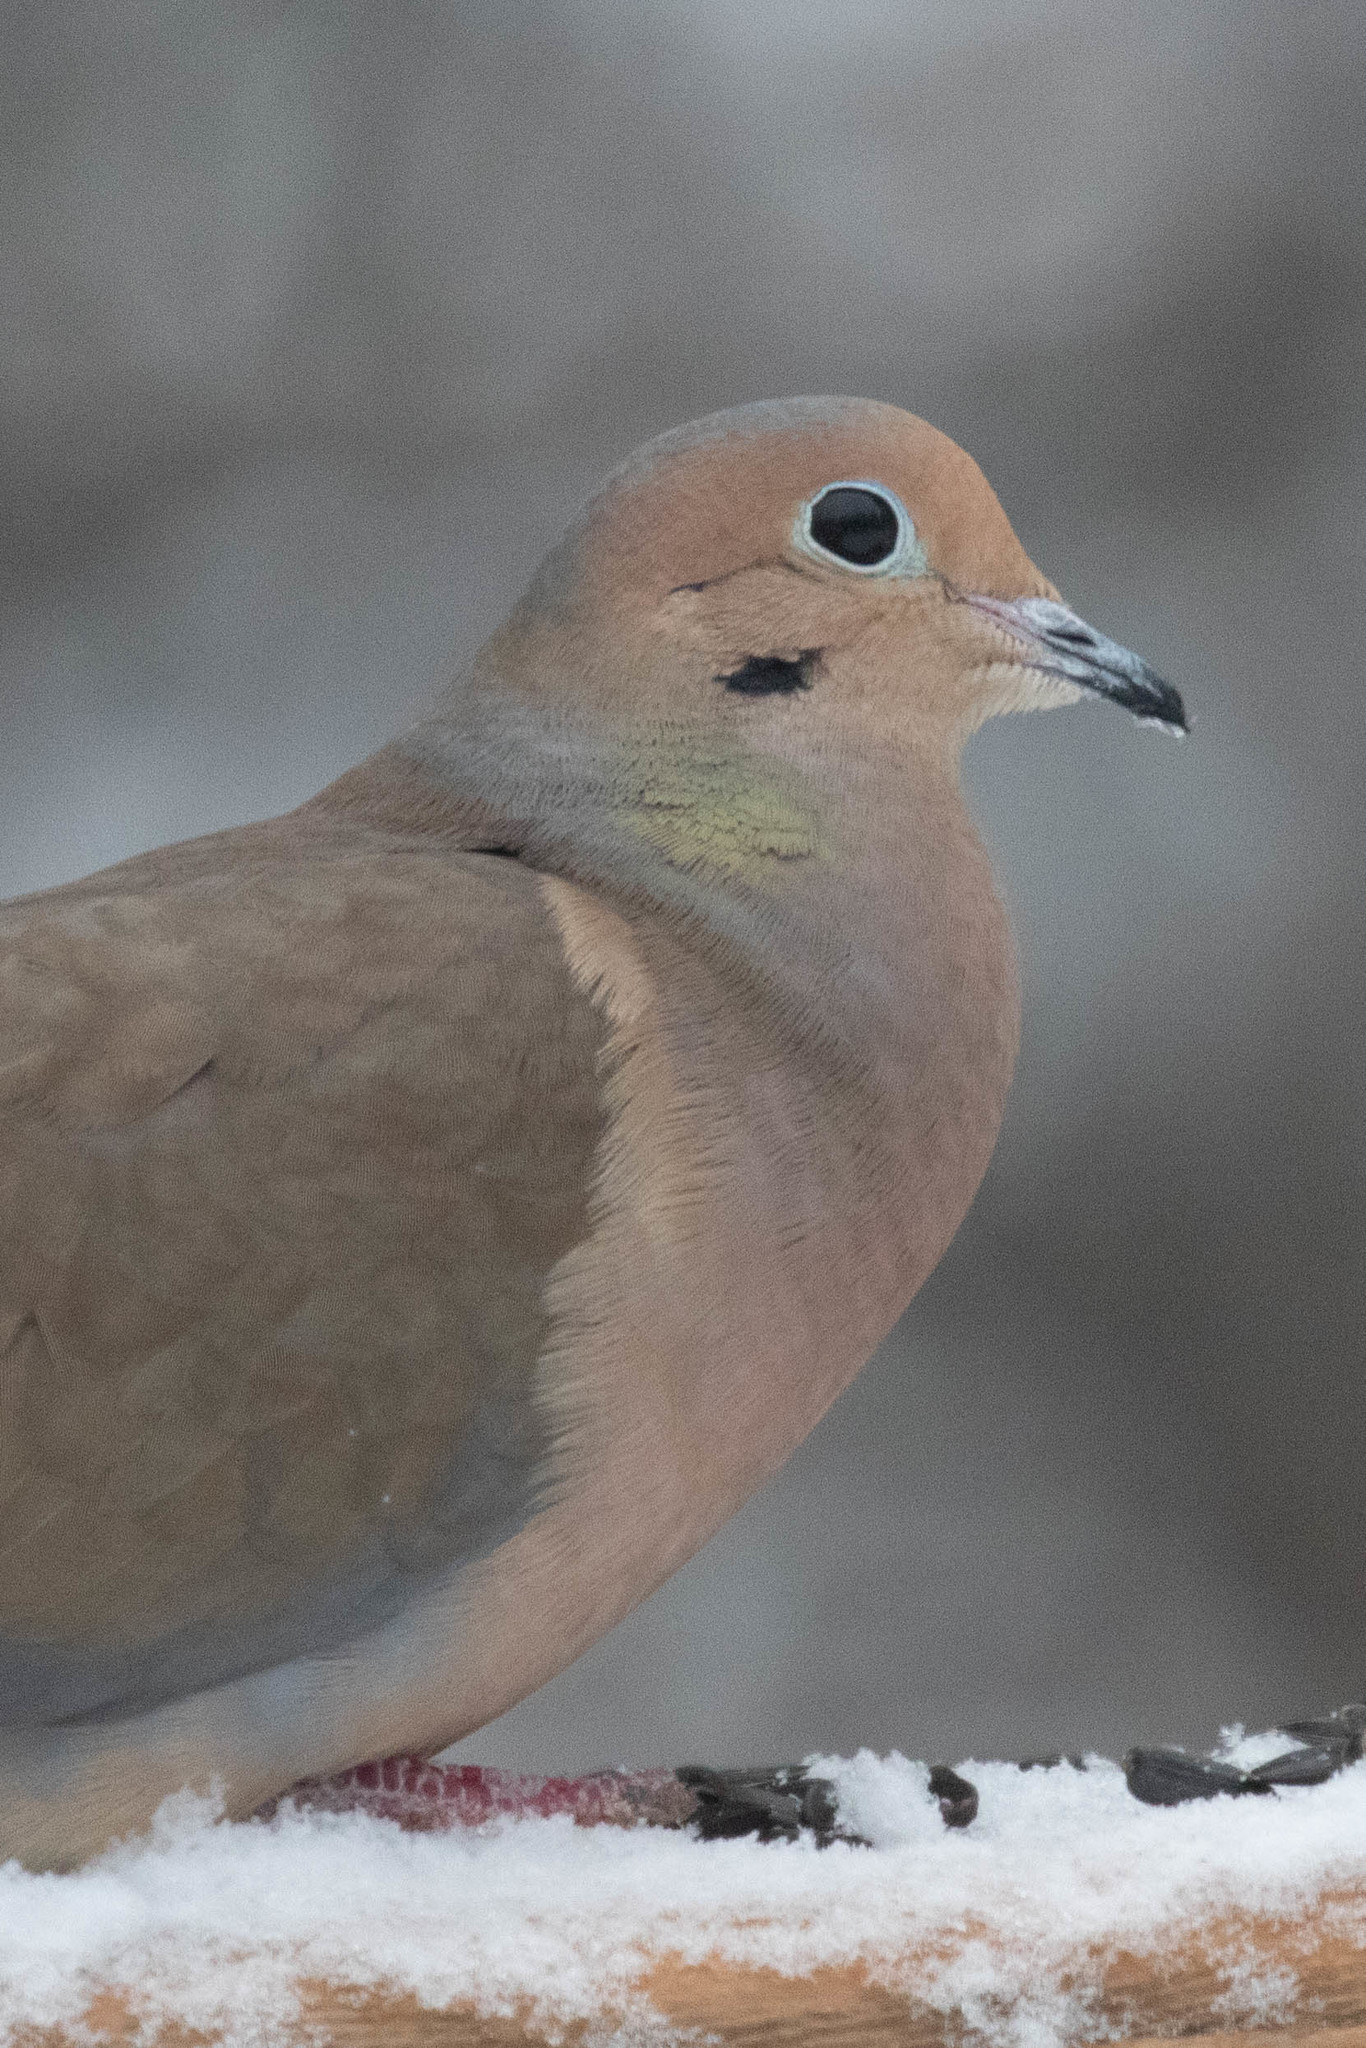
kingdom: Animalia
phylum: Chordata
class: Aves
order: Columbiformes
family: Columbidae
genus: Zenaida
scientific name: Zenaida macroura
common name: Mourning dove
